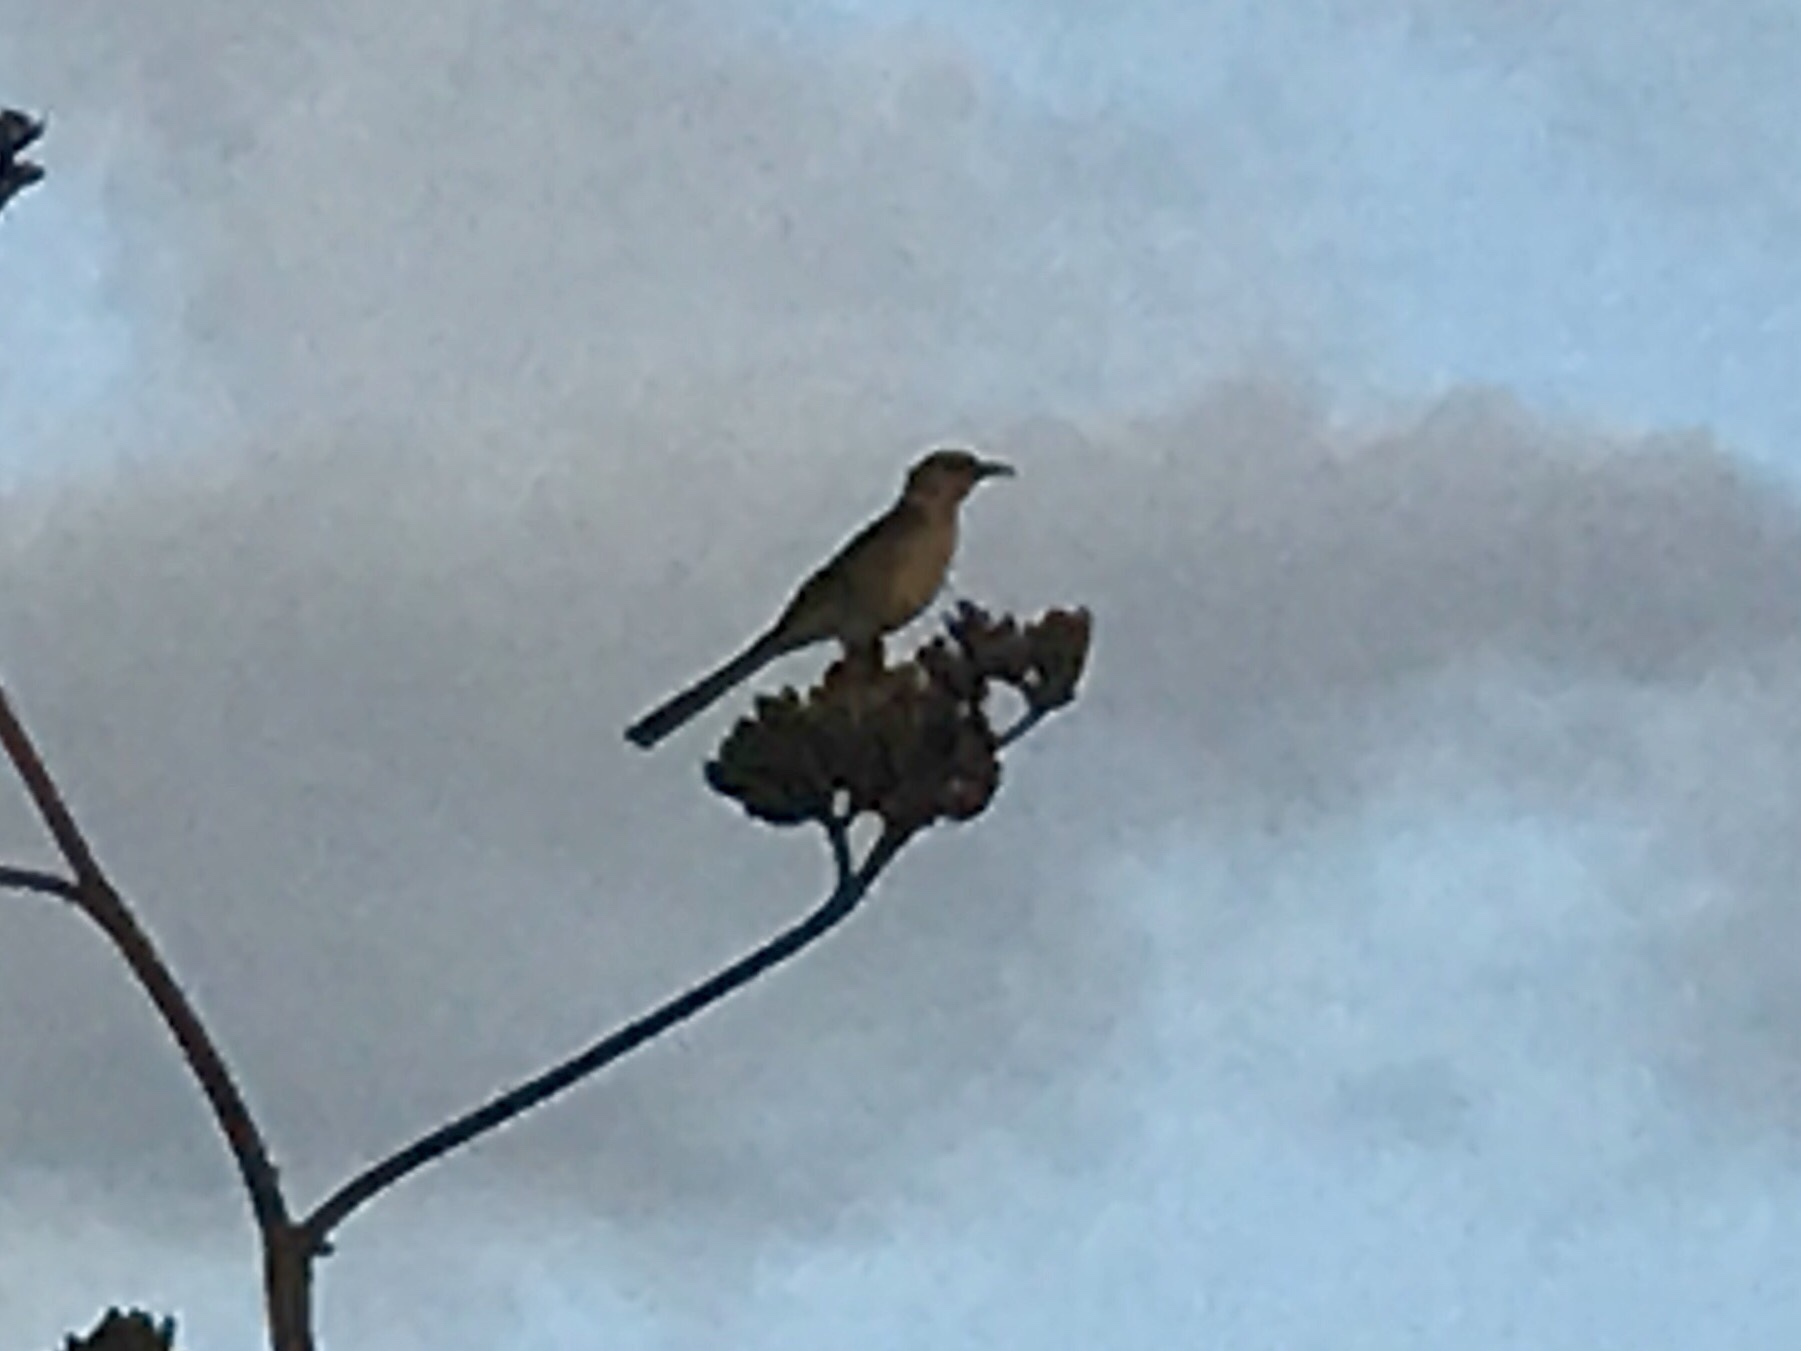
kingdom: Animalia
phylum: Chordata
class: Aves
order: Passeriformes
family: Mimidae
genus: Toxostoma
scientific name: Toxostoma curvirostre
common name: Curve-billed thrasher
